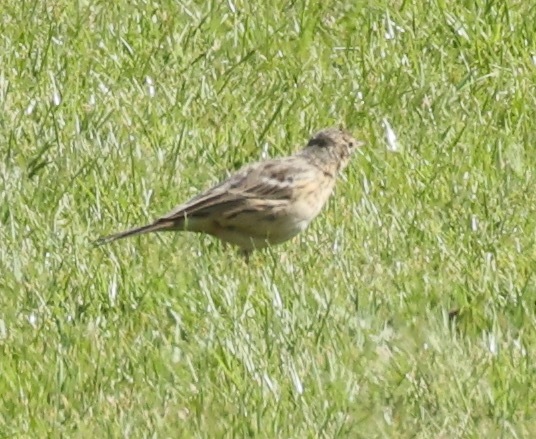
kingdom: Animalia
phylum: Chordata
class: Aves
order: Passeriformes
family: Motacillidae
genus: Anthus
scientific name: Anthus pratensis
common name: Meadow pipit
